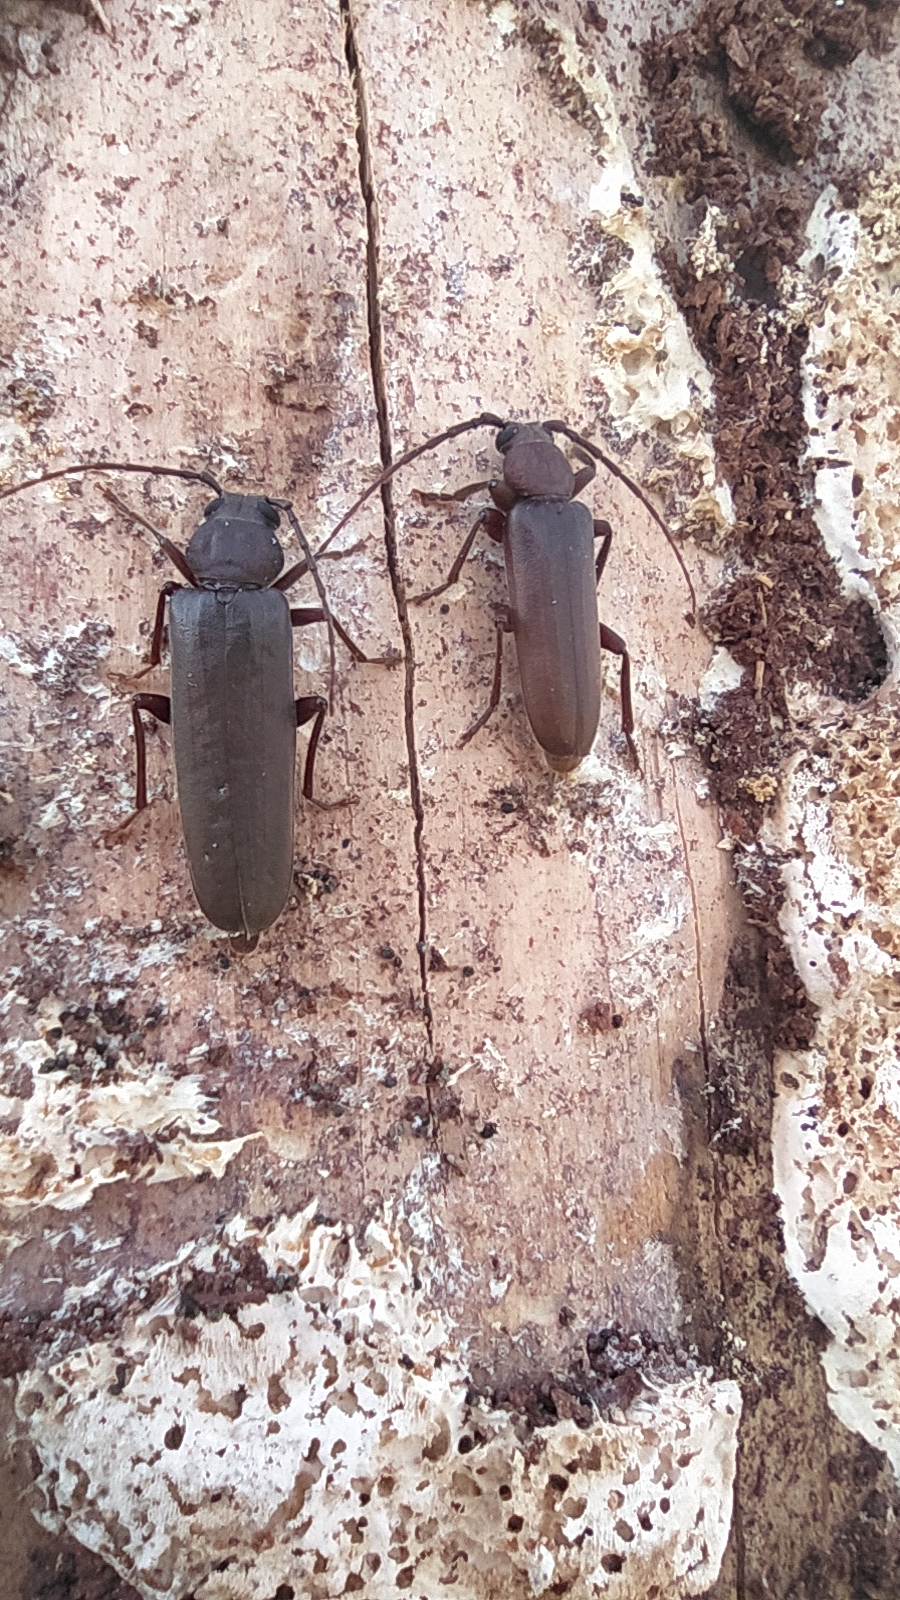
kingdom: Animalia
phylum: Arthropoda
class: Insecta
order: Coleoptera
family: Cerambycidae
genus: Arhopalus
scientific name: Arhopalus rusticus
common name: Rust pine borer
